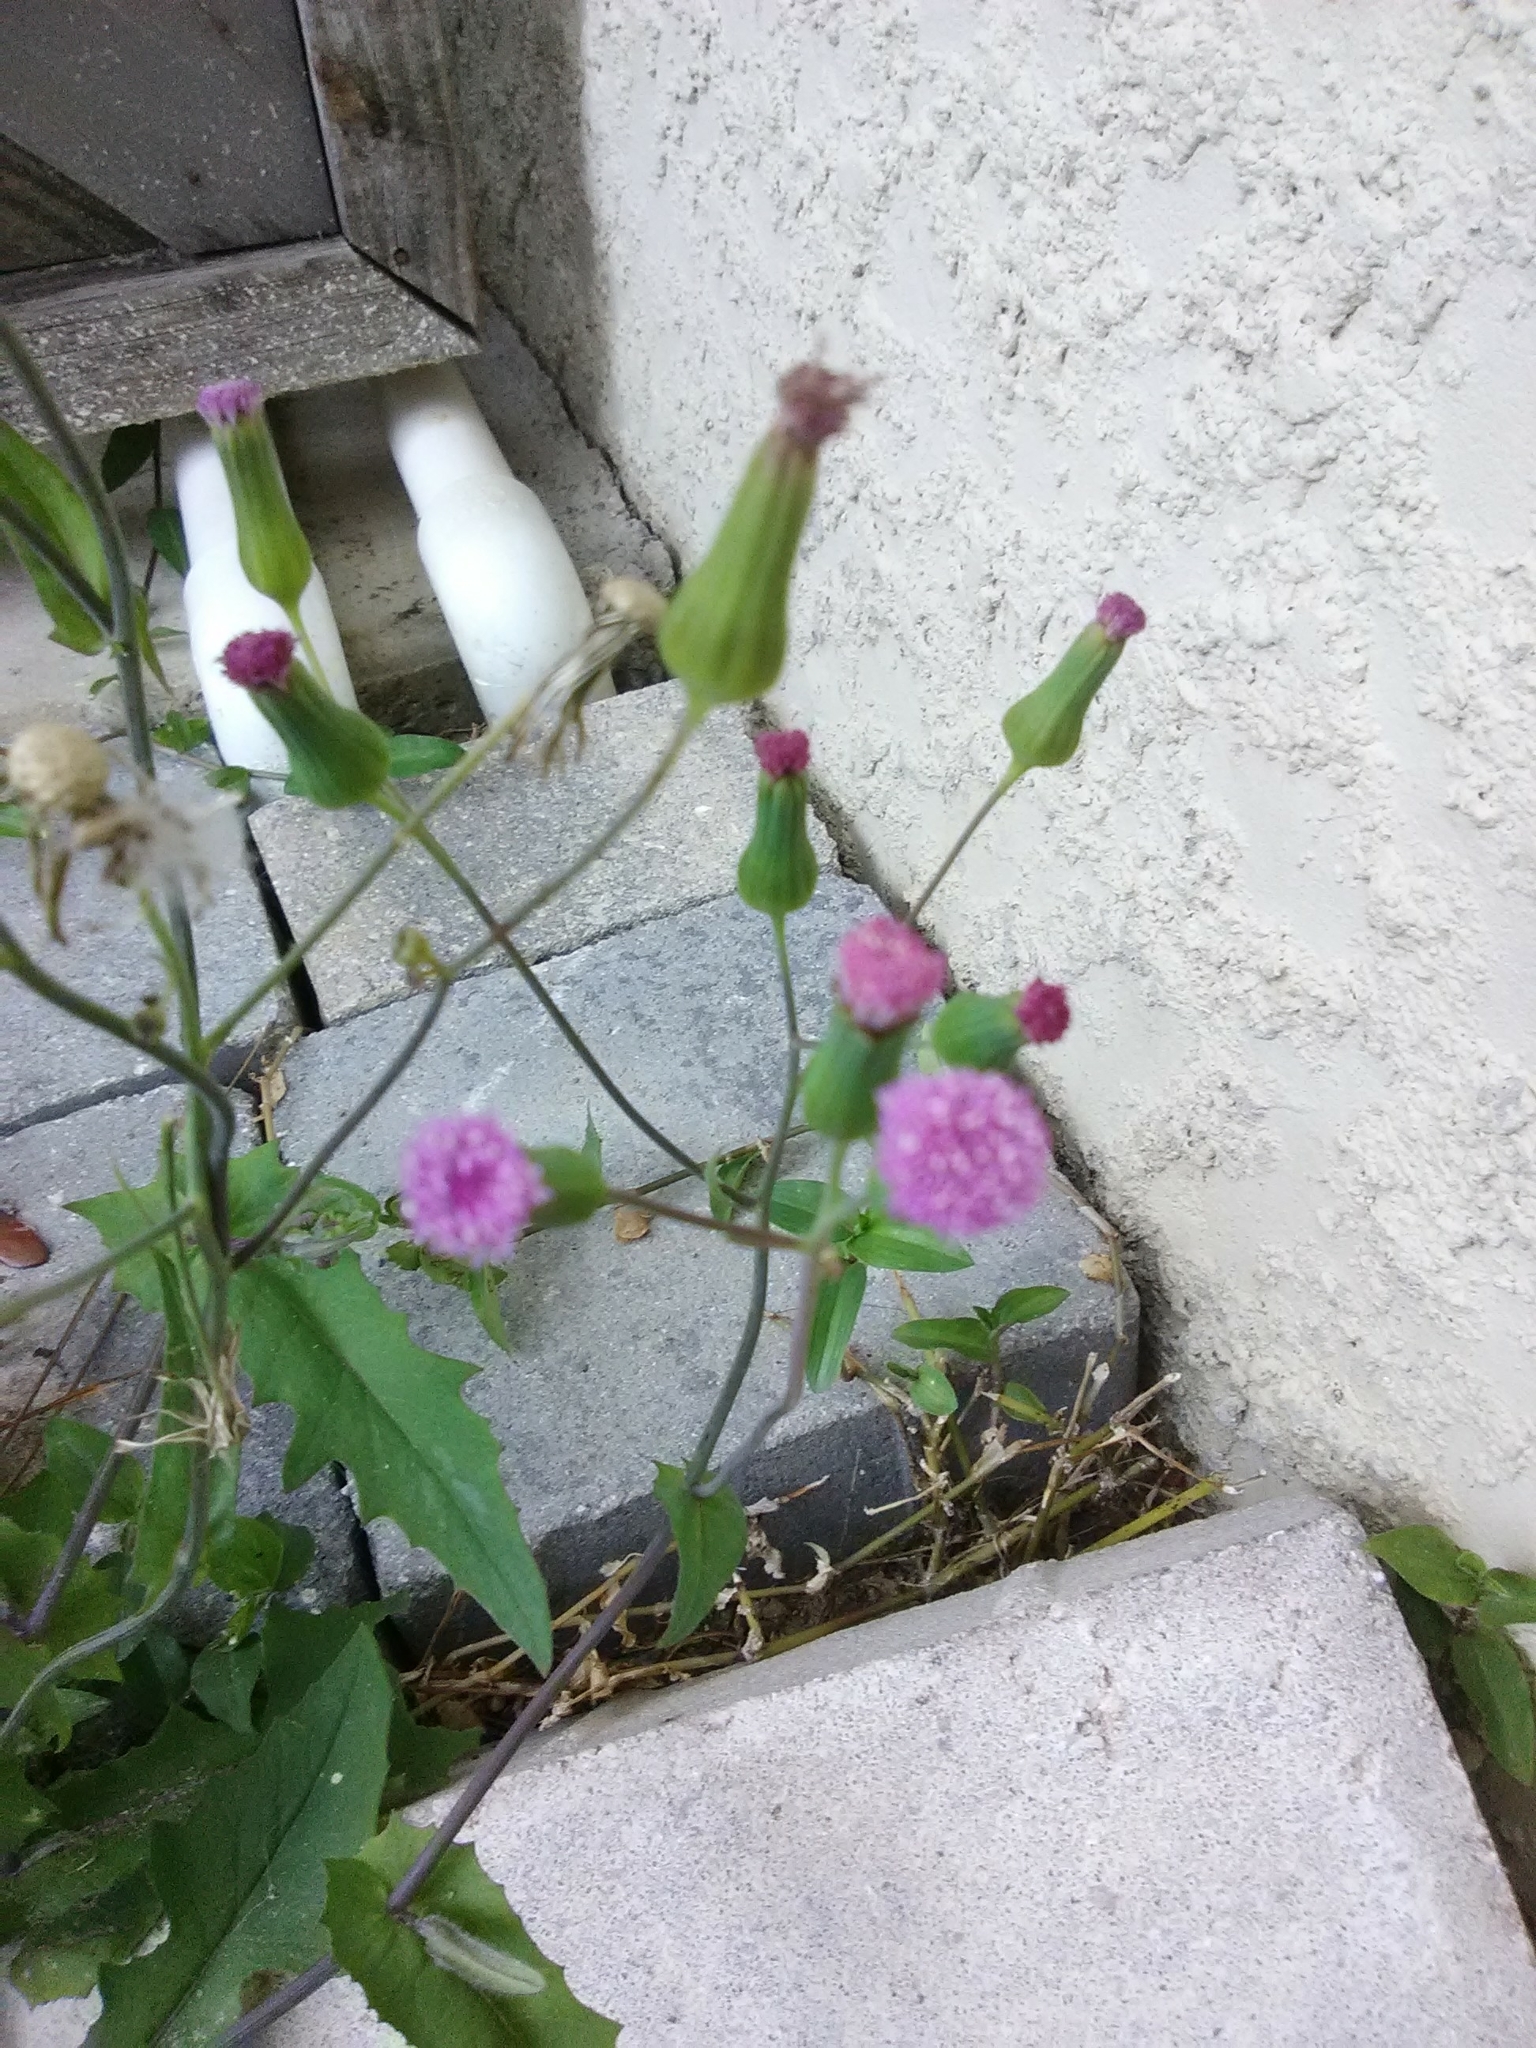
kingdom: Plantae
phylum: Tracheophyta
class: Magnoliopsida
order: Asterales
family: Asteraceae
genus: Emilia
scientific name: Emilia sonchifolia
